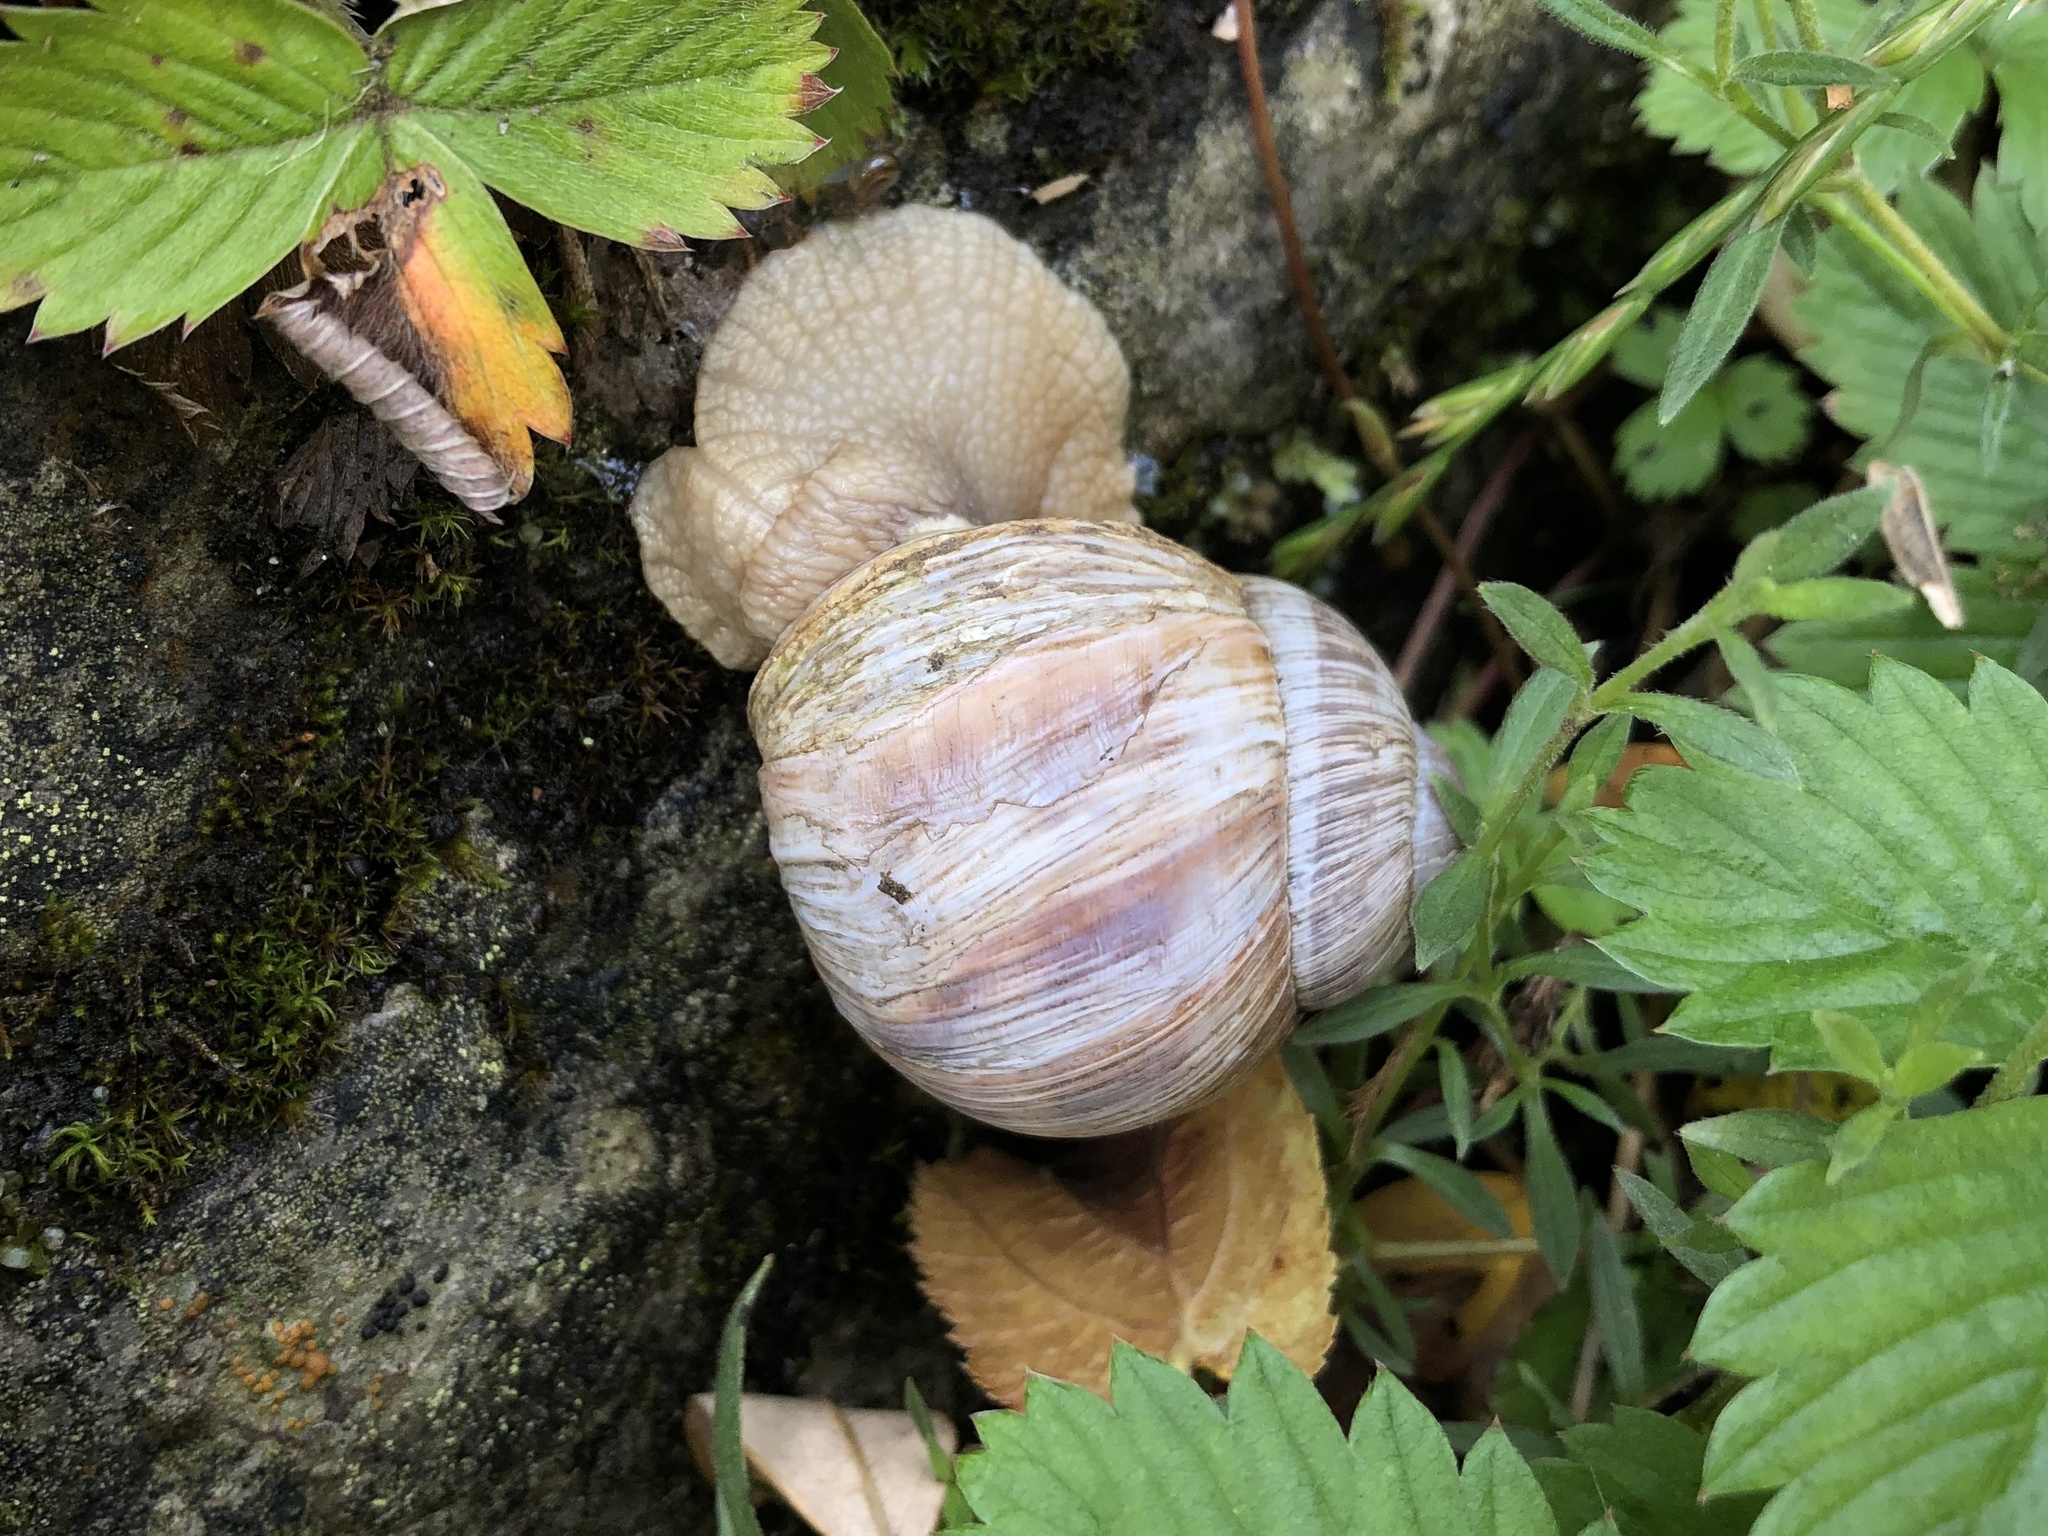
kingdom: Animalia
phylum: Mollusca
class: Gastropoda
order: Stylommatophora
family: Helicidae
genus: Helix
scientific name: Helix pomatia
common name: Roman snail
